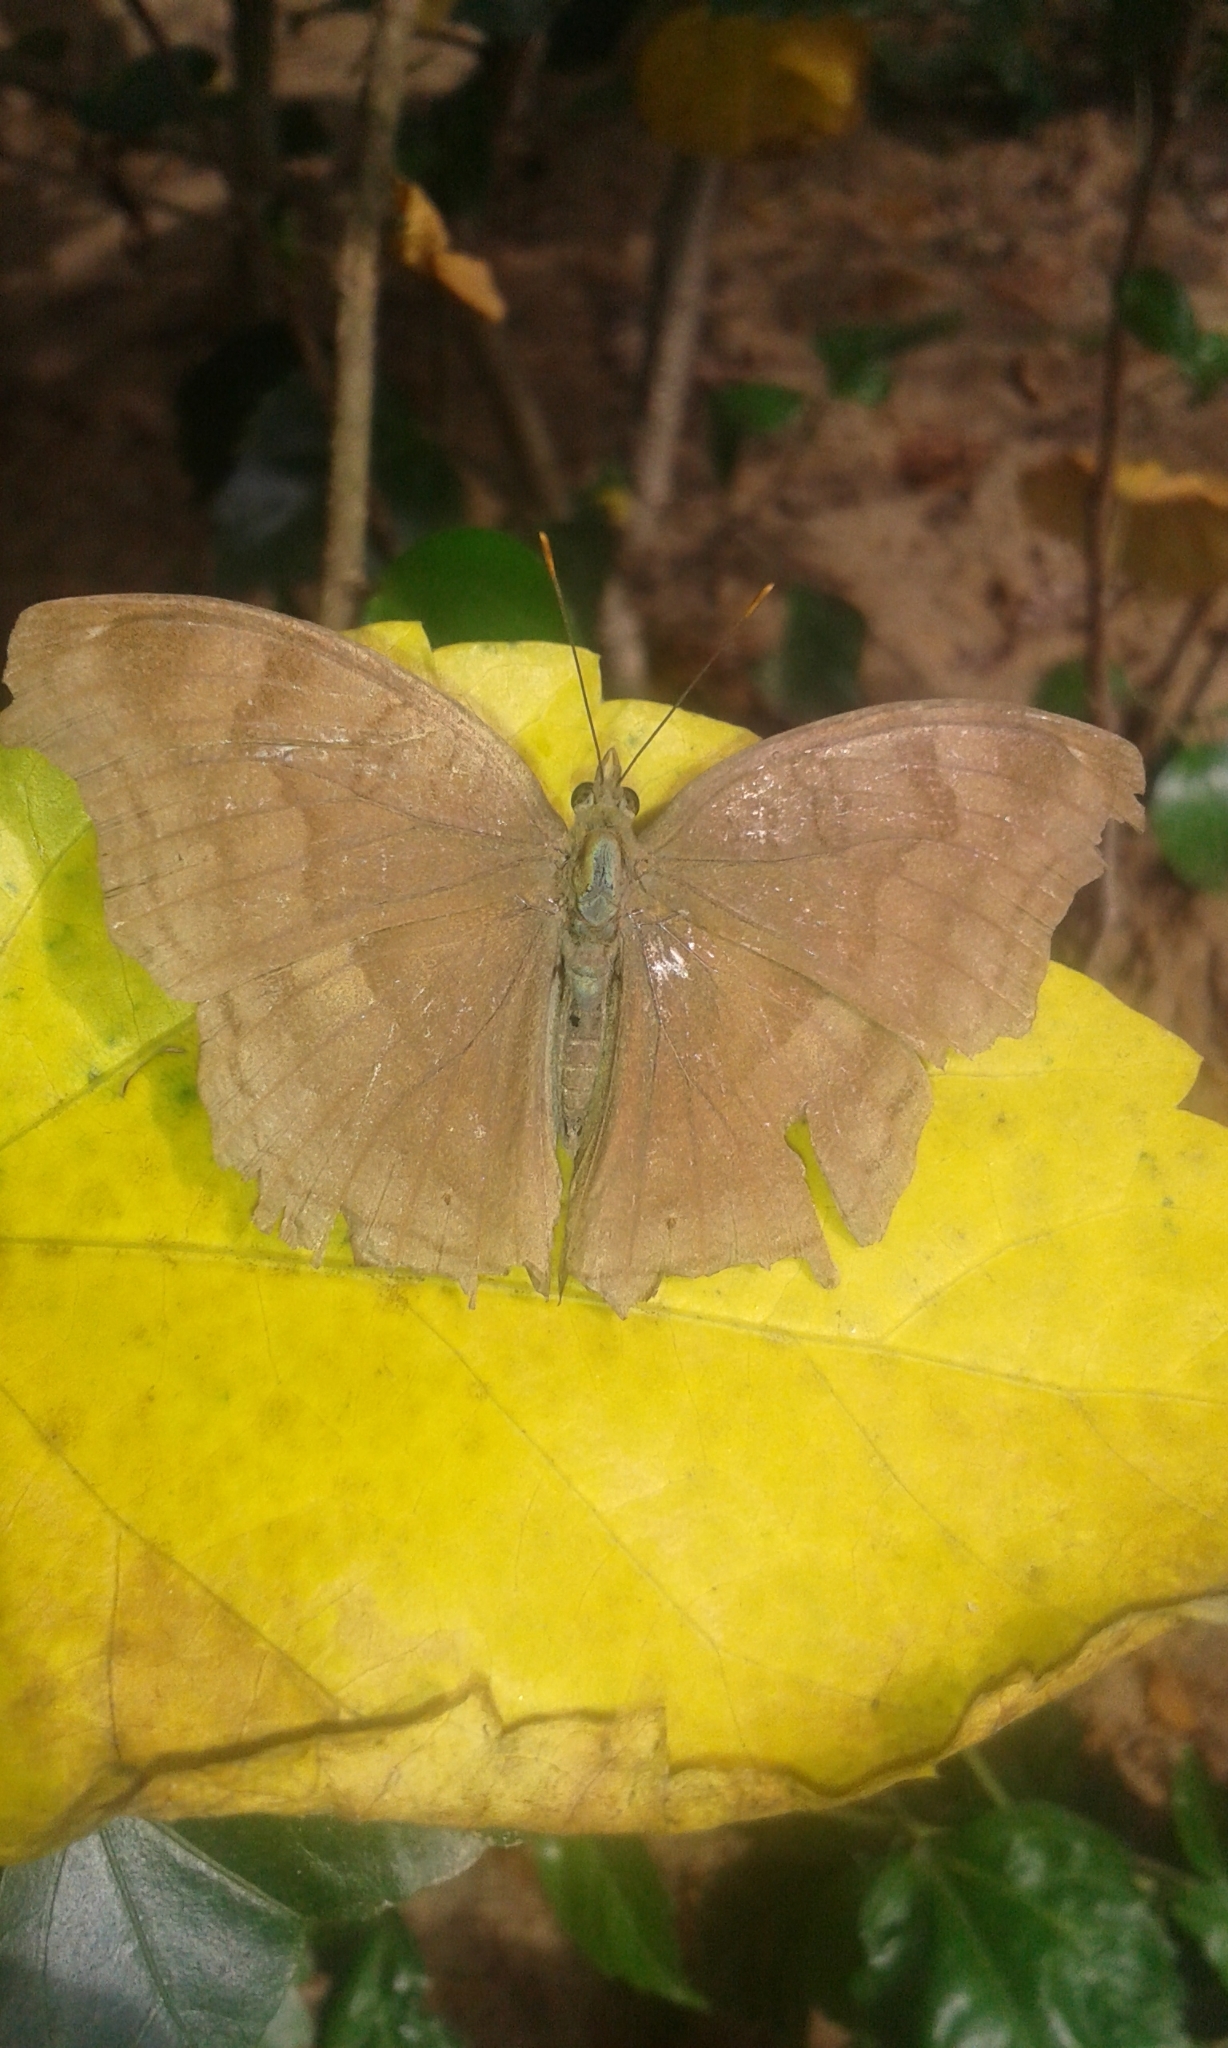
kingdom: Animalia
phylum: Arthropoda
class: Insecta
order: Lepidoptera
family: Nymphalidae
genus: Junonia
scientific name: Junonia iphita
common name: Chocolate pansy
